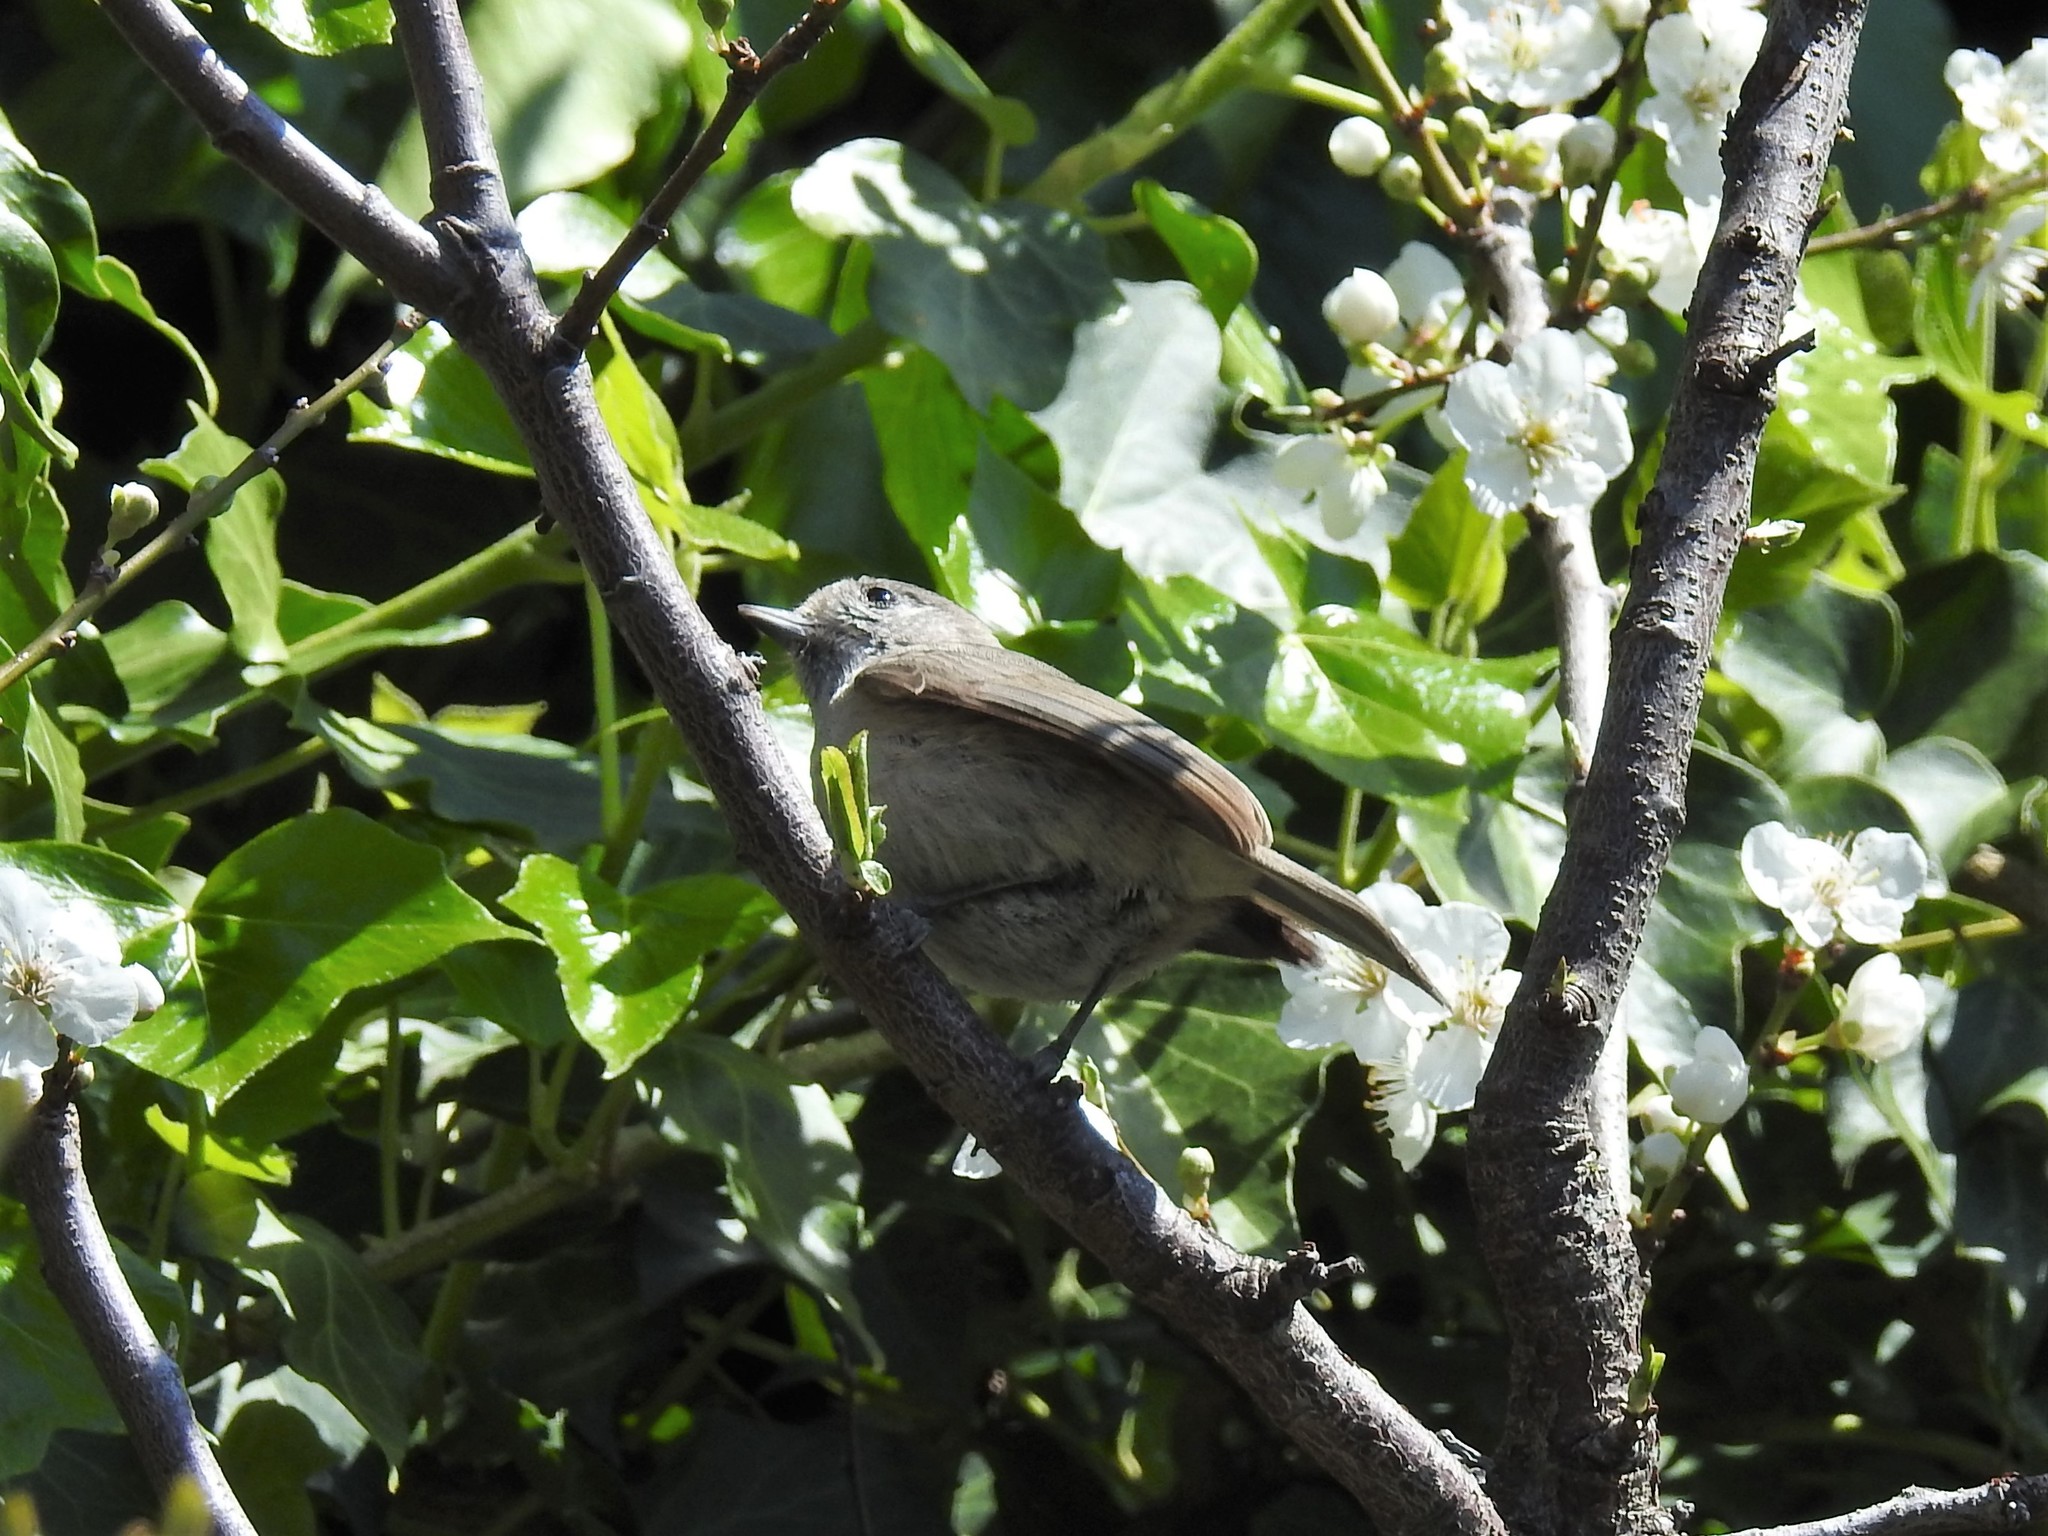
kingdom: Animalia
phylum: Chordata
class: Aves
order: Passeriformes
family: Paridae
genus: Baeolophus
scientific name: Baeolophus inornatus
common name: Oak titmouse
